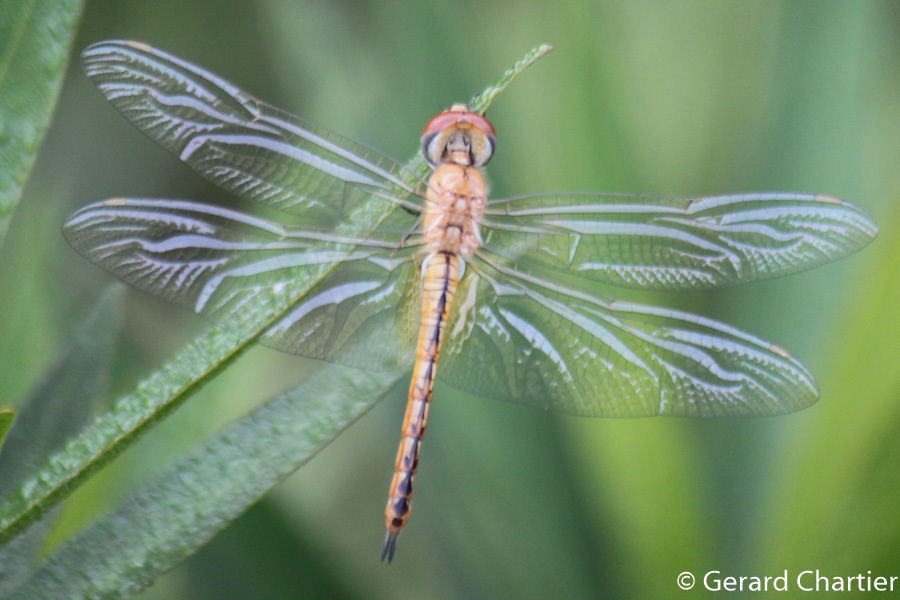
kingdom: Animalia
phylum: Arthropoda
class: Insecta
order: Odonata
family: Libellulidae
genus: Pantala
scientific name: Pantala flavescens
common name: Wandering glider
